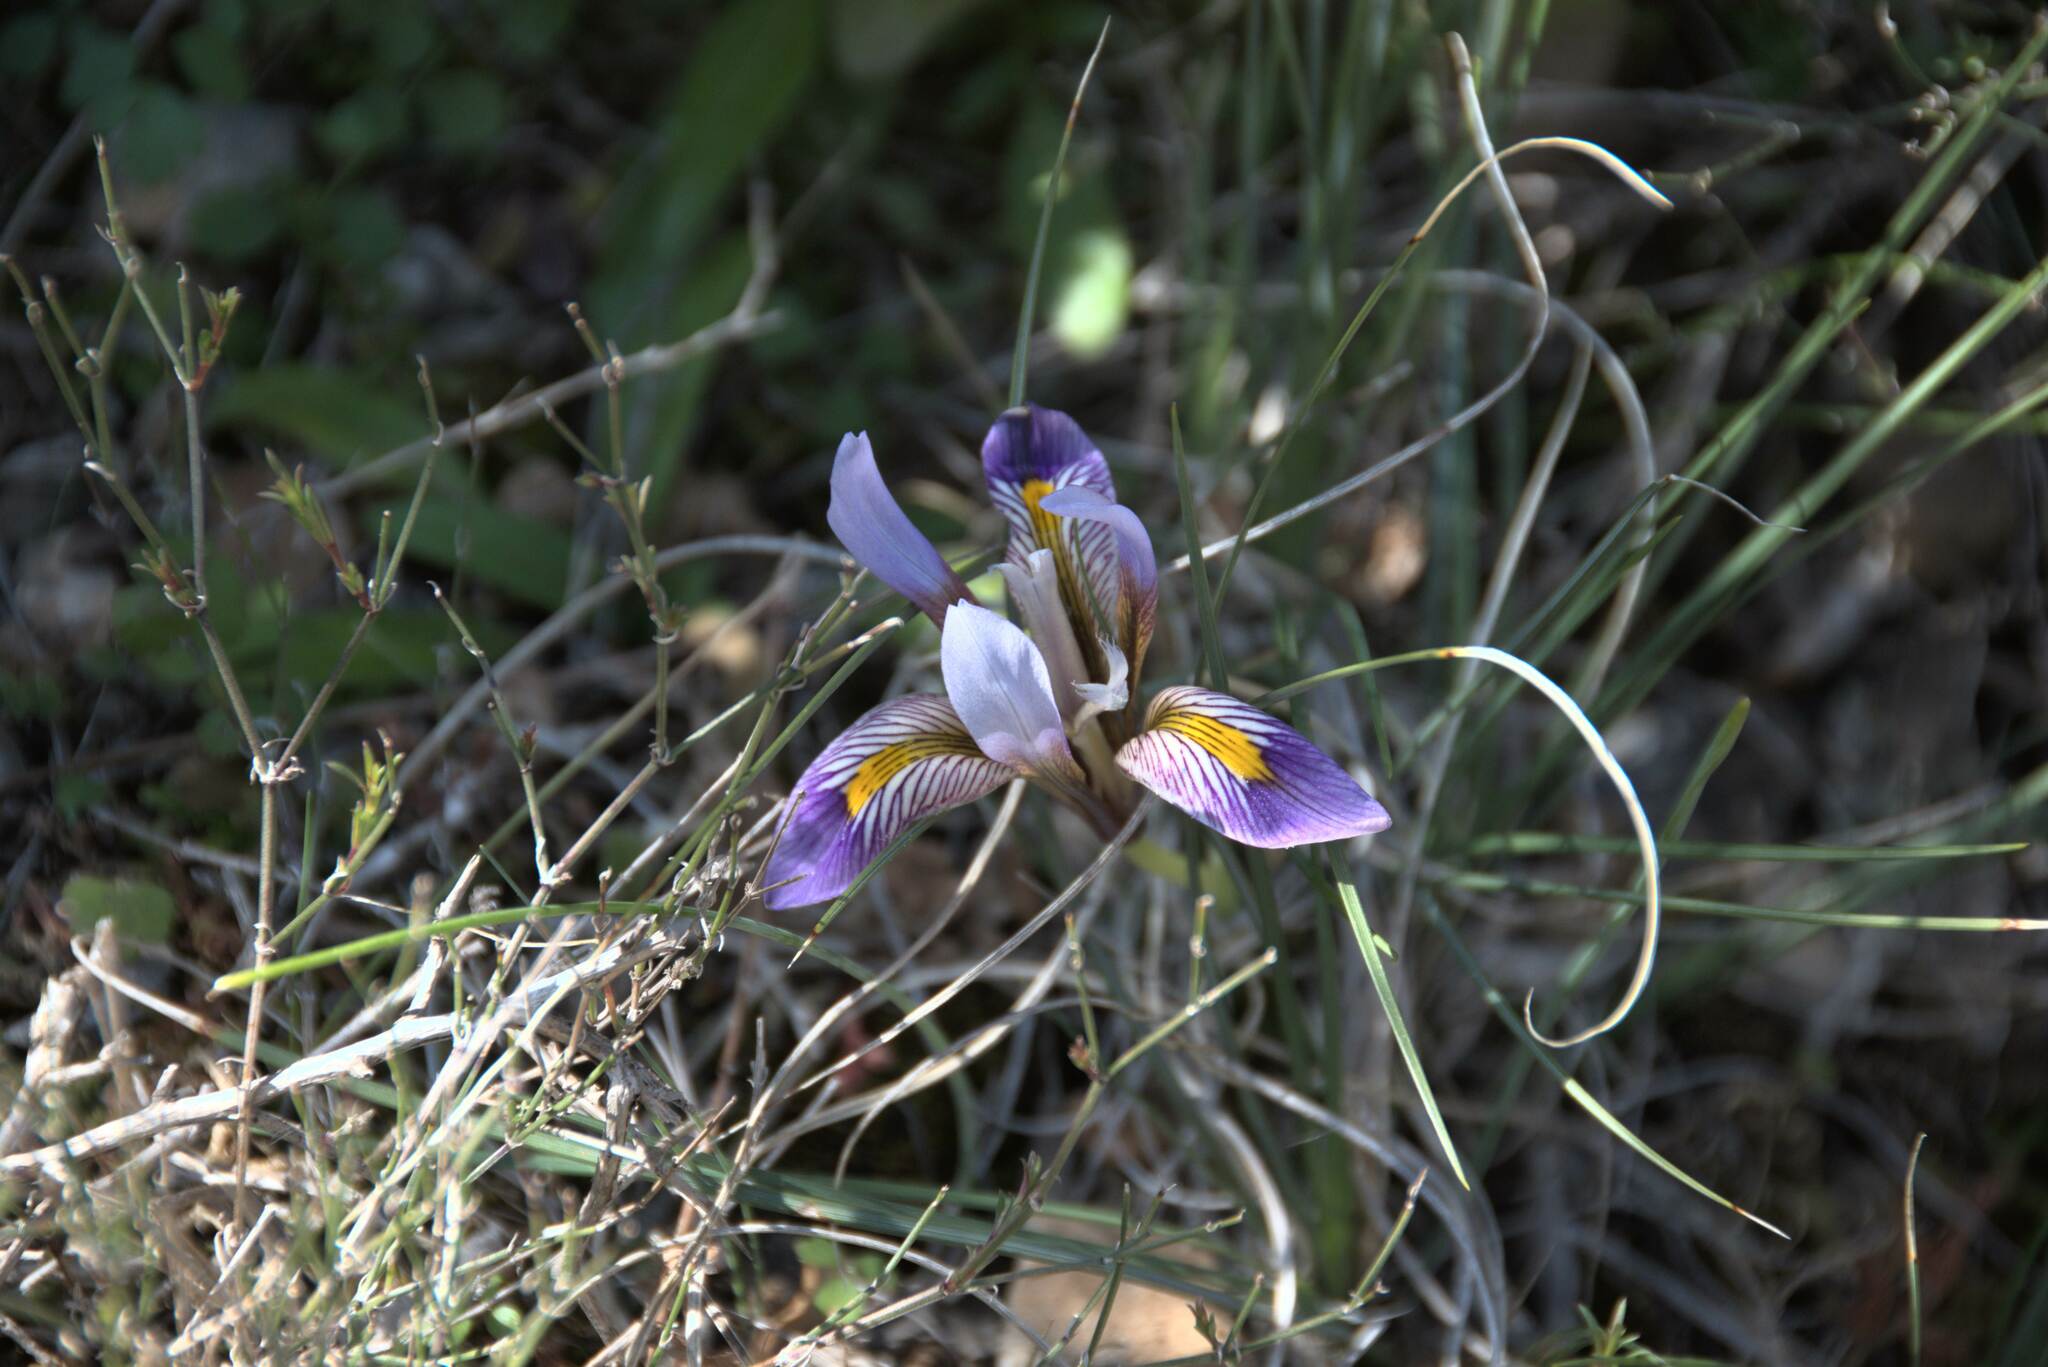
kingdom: Plantae
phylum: Tracheophyta
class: Liliopsida
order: Asparagales
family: Iridaceae
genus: Iris
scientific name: Iris unguicularis
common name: Algerian iris
